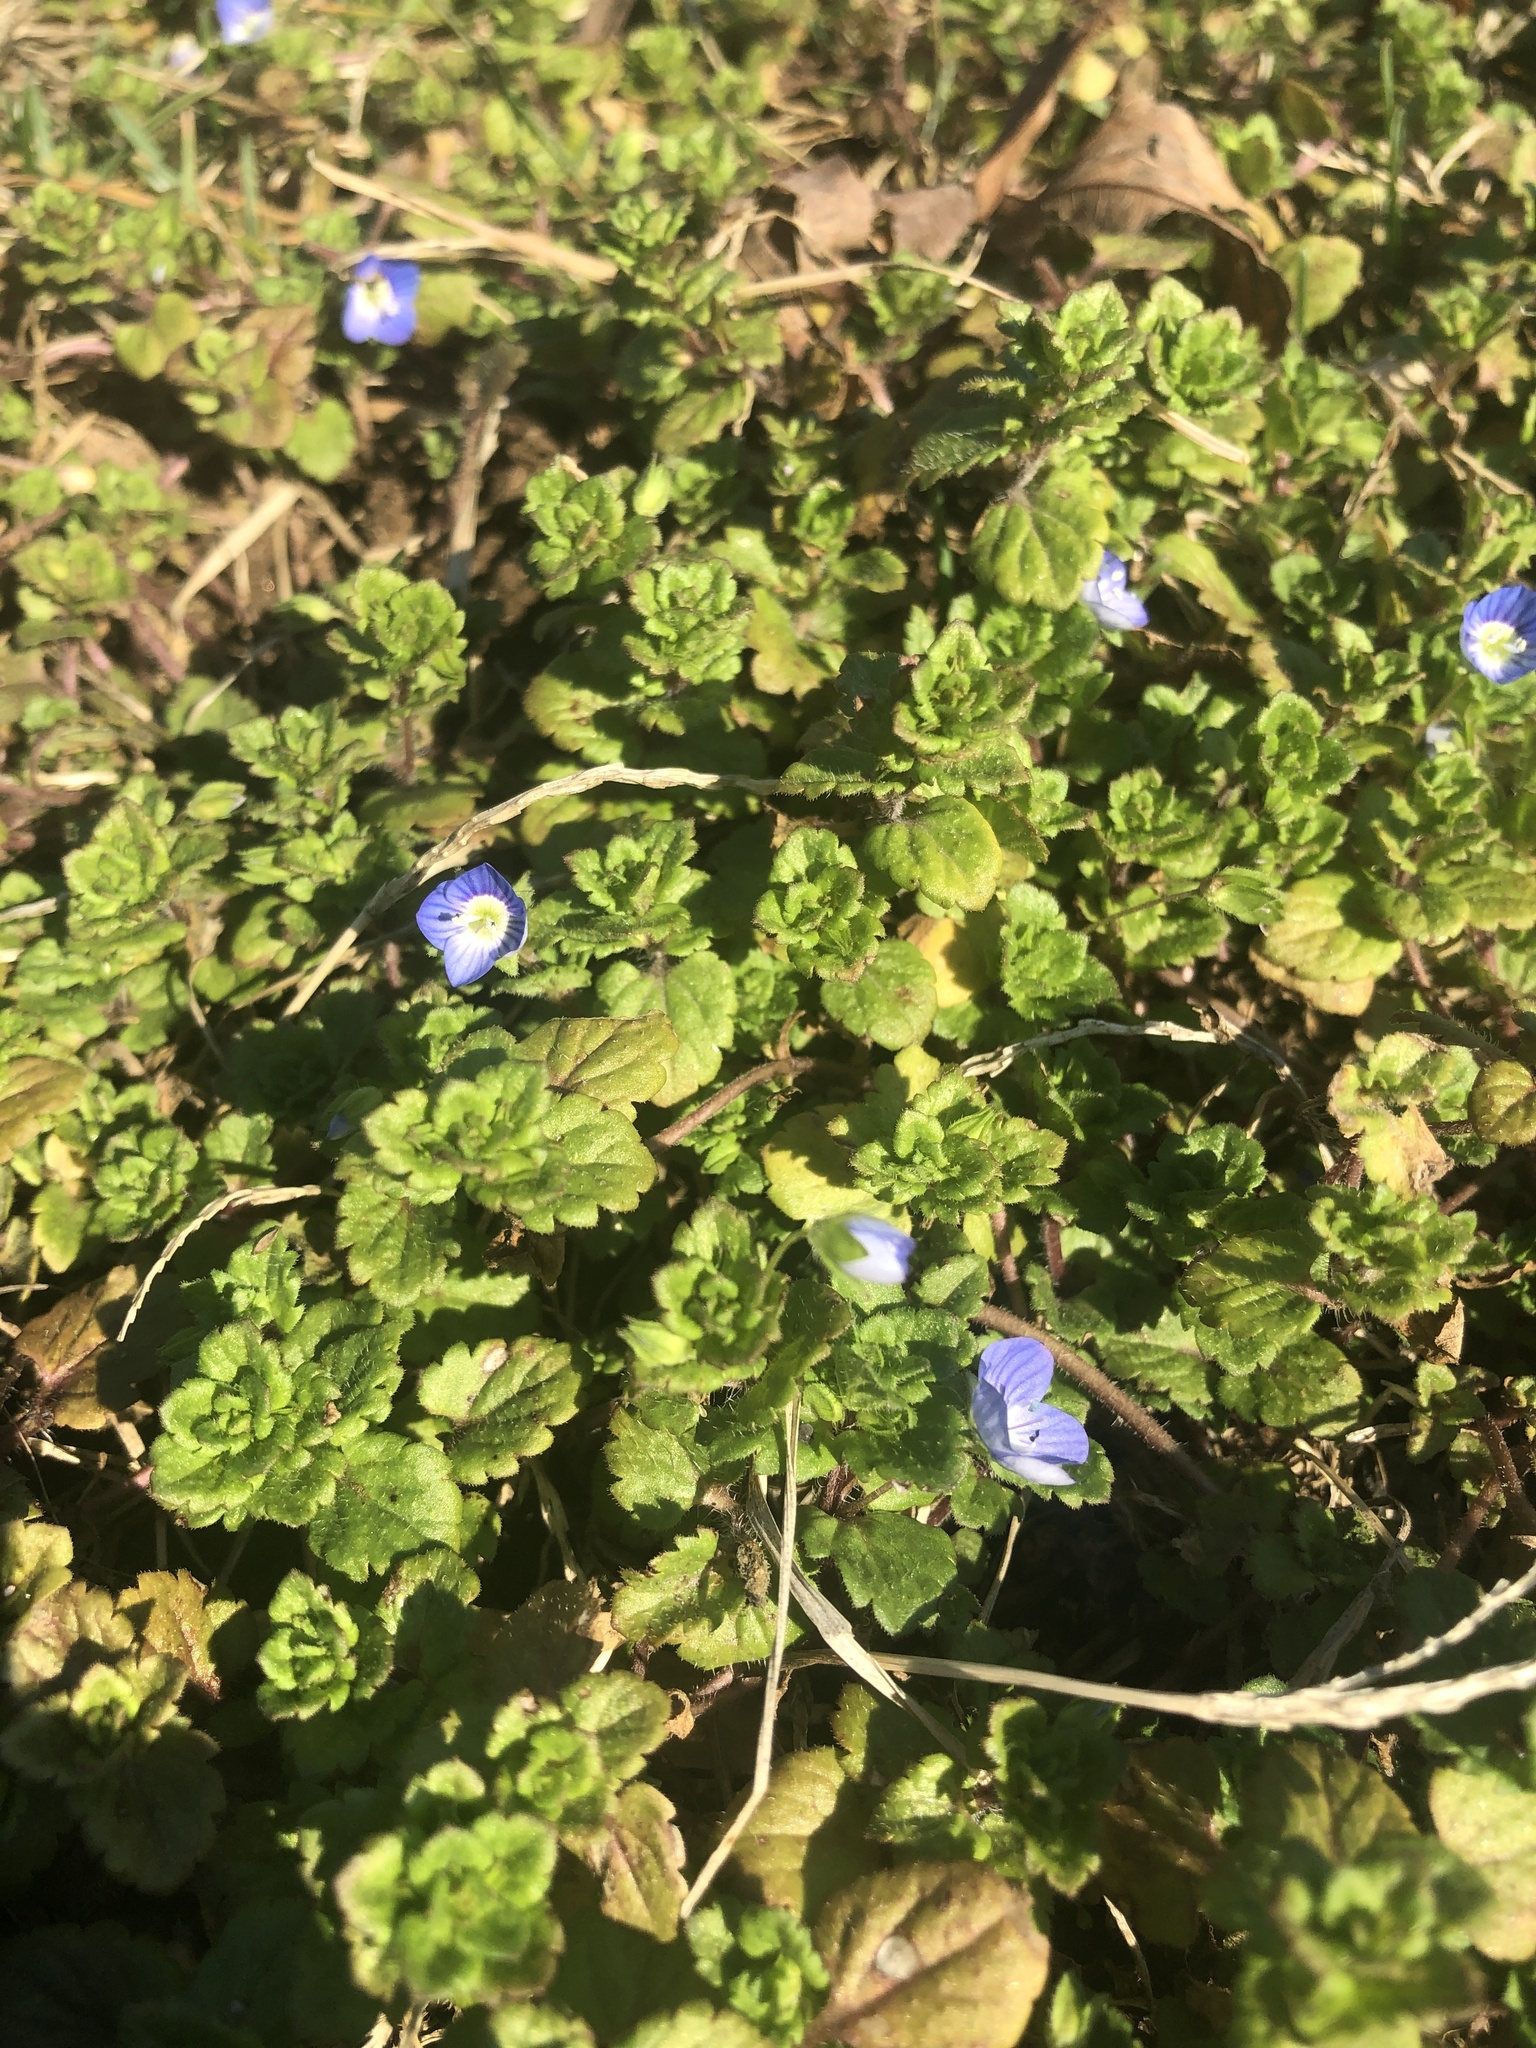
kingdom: Plantae
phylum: Tracheophyta
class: Magnoliopsida
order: Lamiales
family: Plantaginaceae
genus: Veronica
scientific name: Veronica persica
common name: Common field-speedwell
